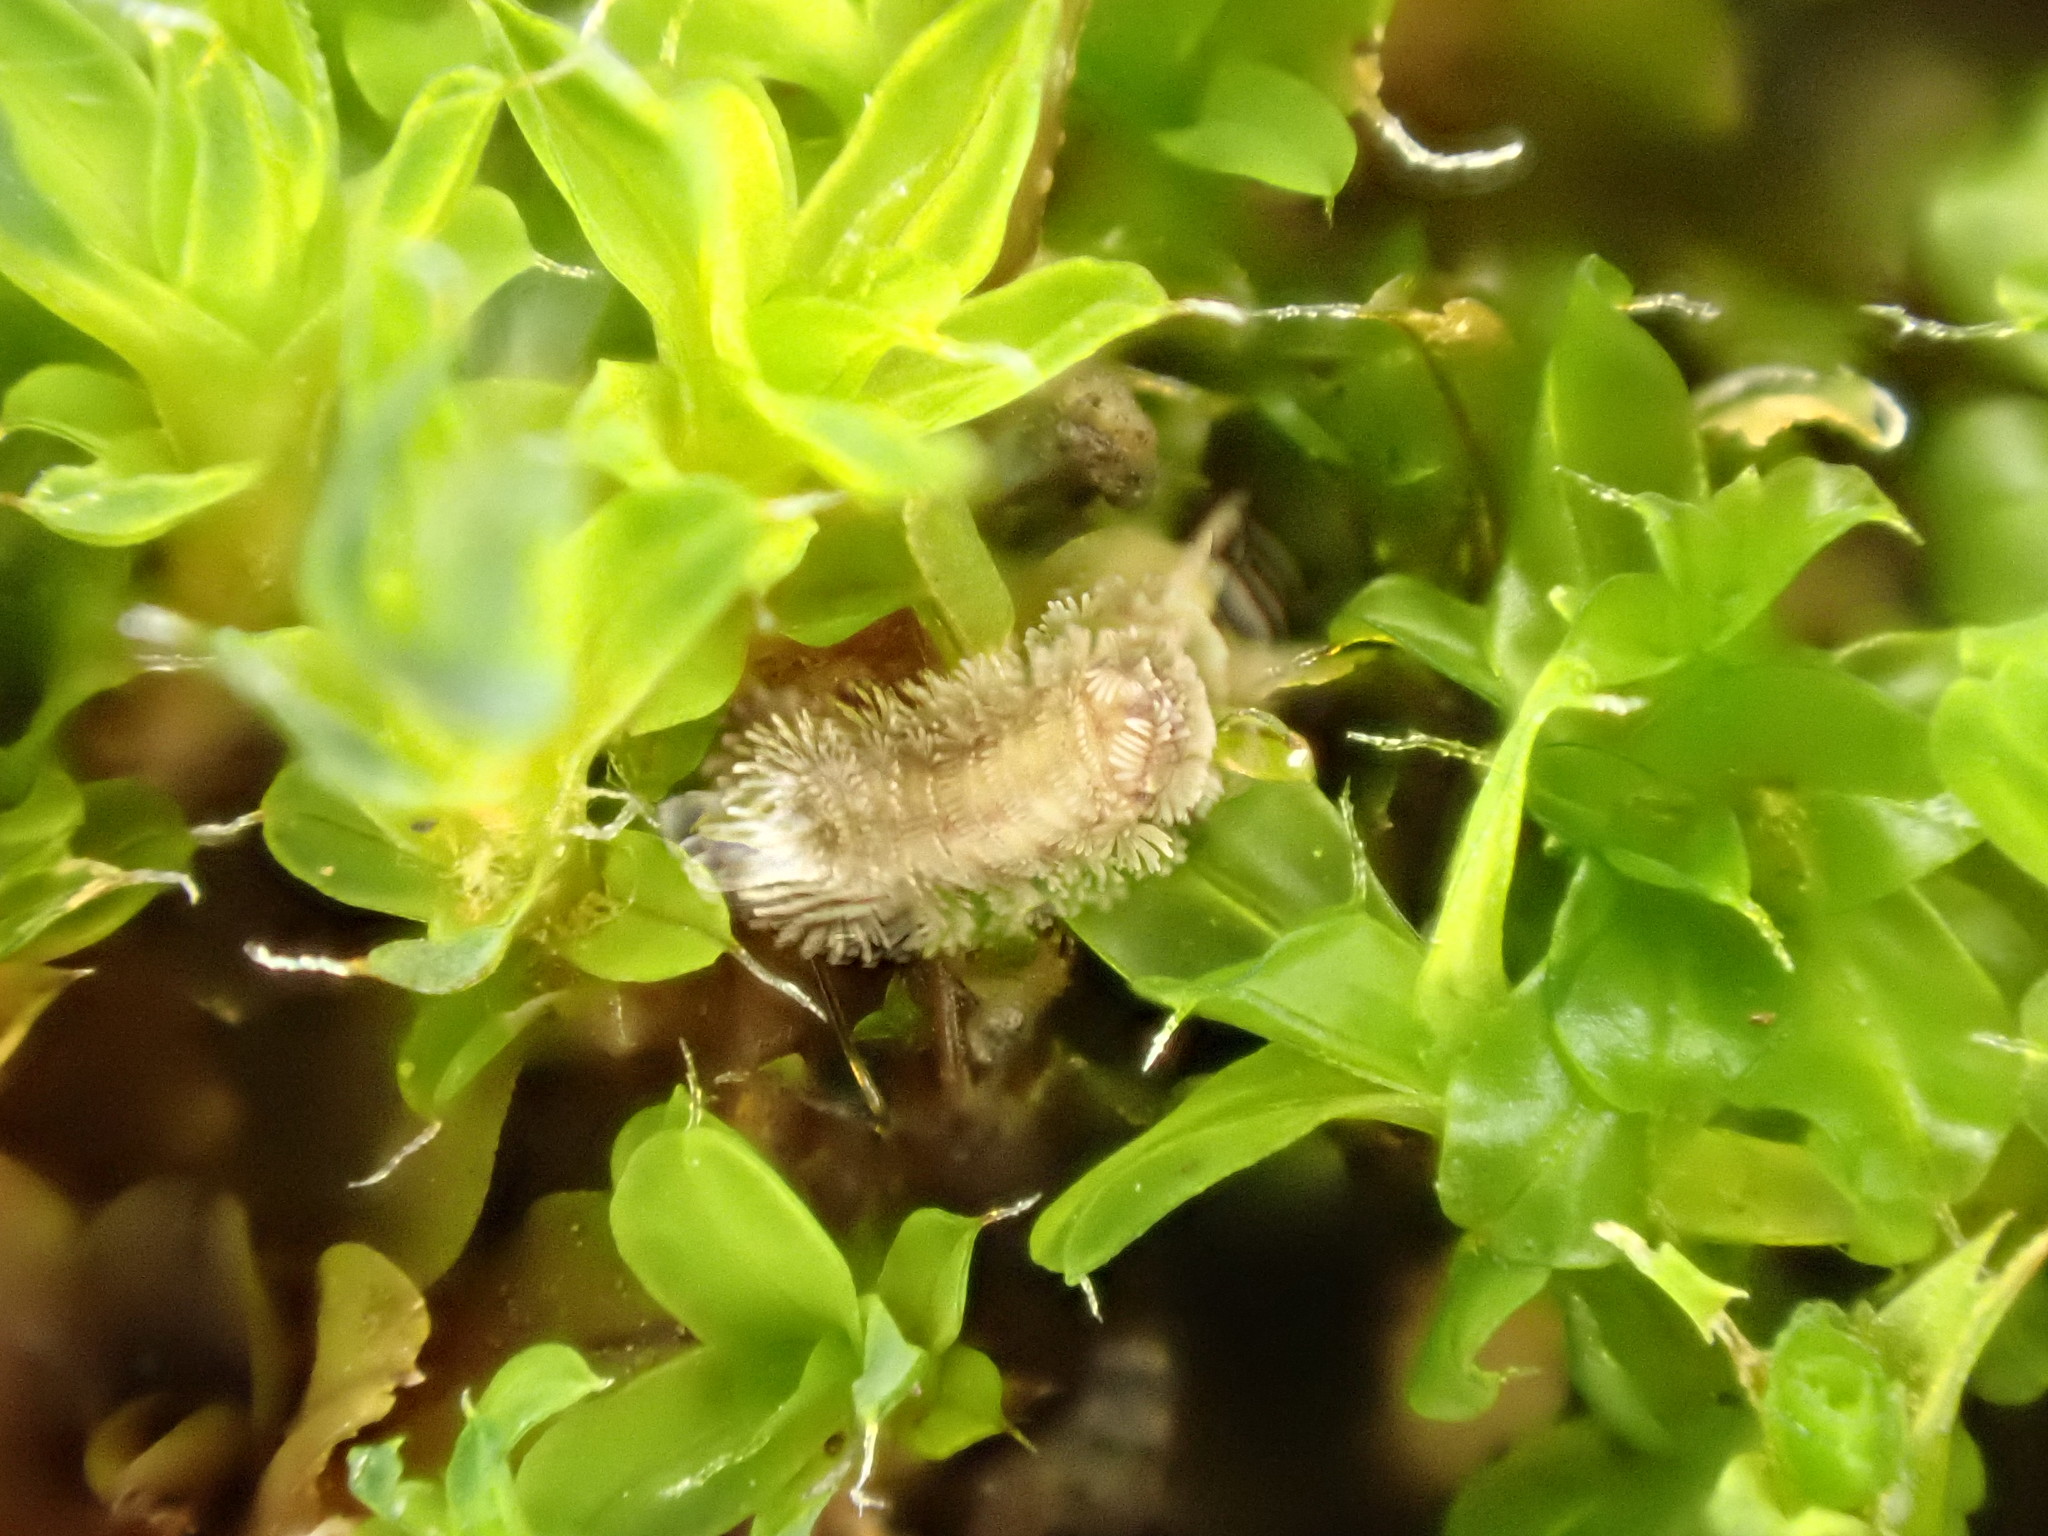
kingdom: Animalia
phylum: Arthropoda
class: Diplopoda
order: Polyxenida
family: Polyxenidae
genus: Polyxenus
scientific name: Polyxenus lagurus
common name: Bristly millipede
